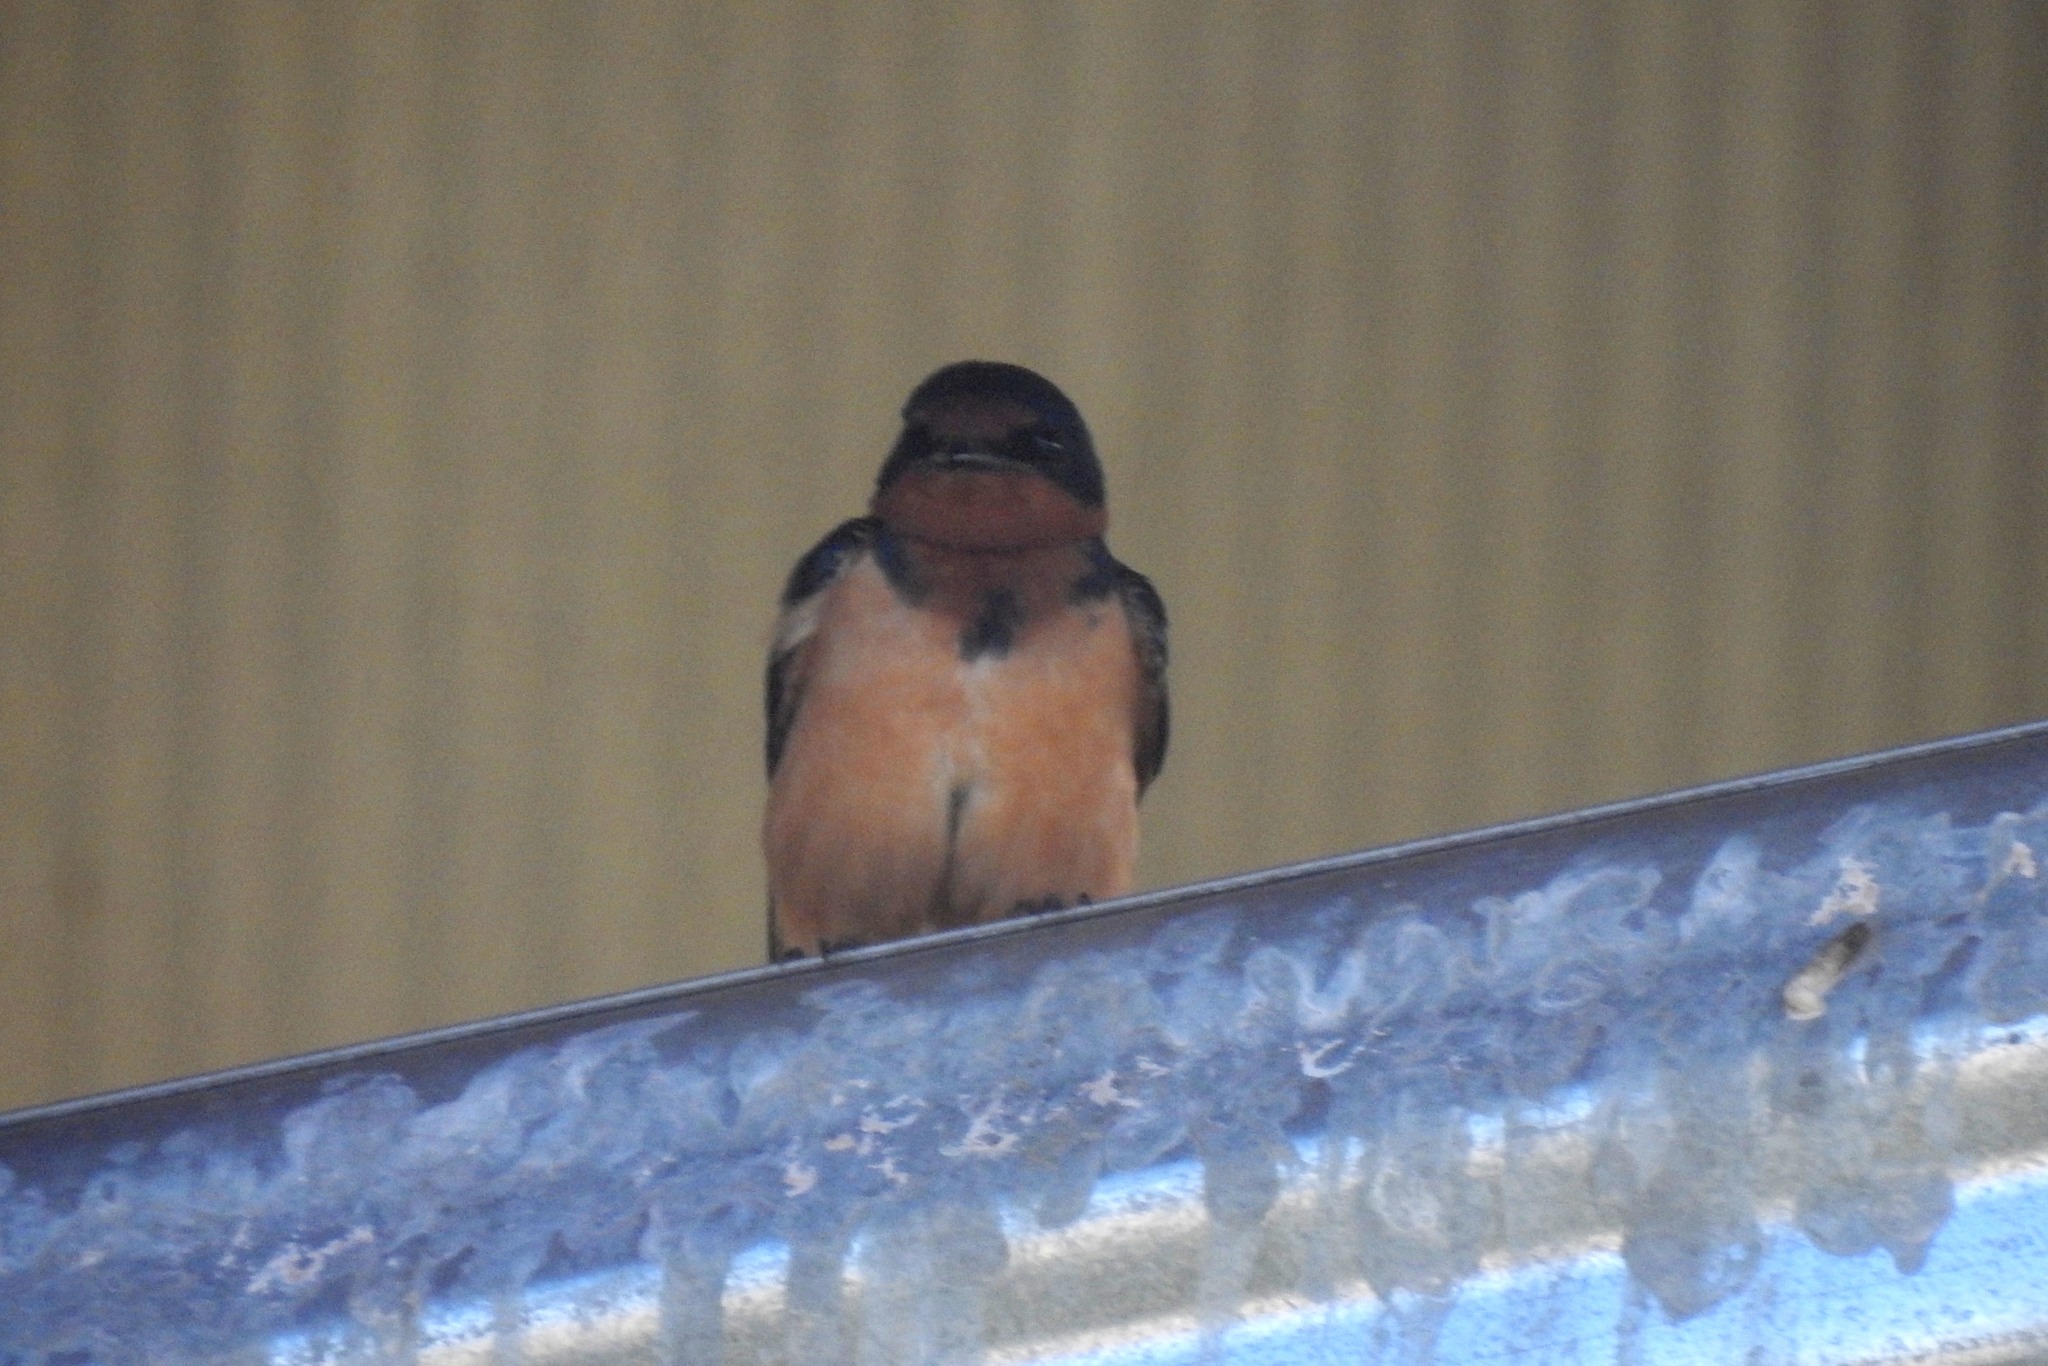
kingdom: Animalia
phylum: Chordata
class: Aves
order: Passeriformes
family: Hirundinidae
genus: Hirundo
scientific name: Hirundo rustica
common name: Barn swallow
